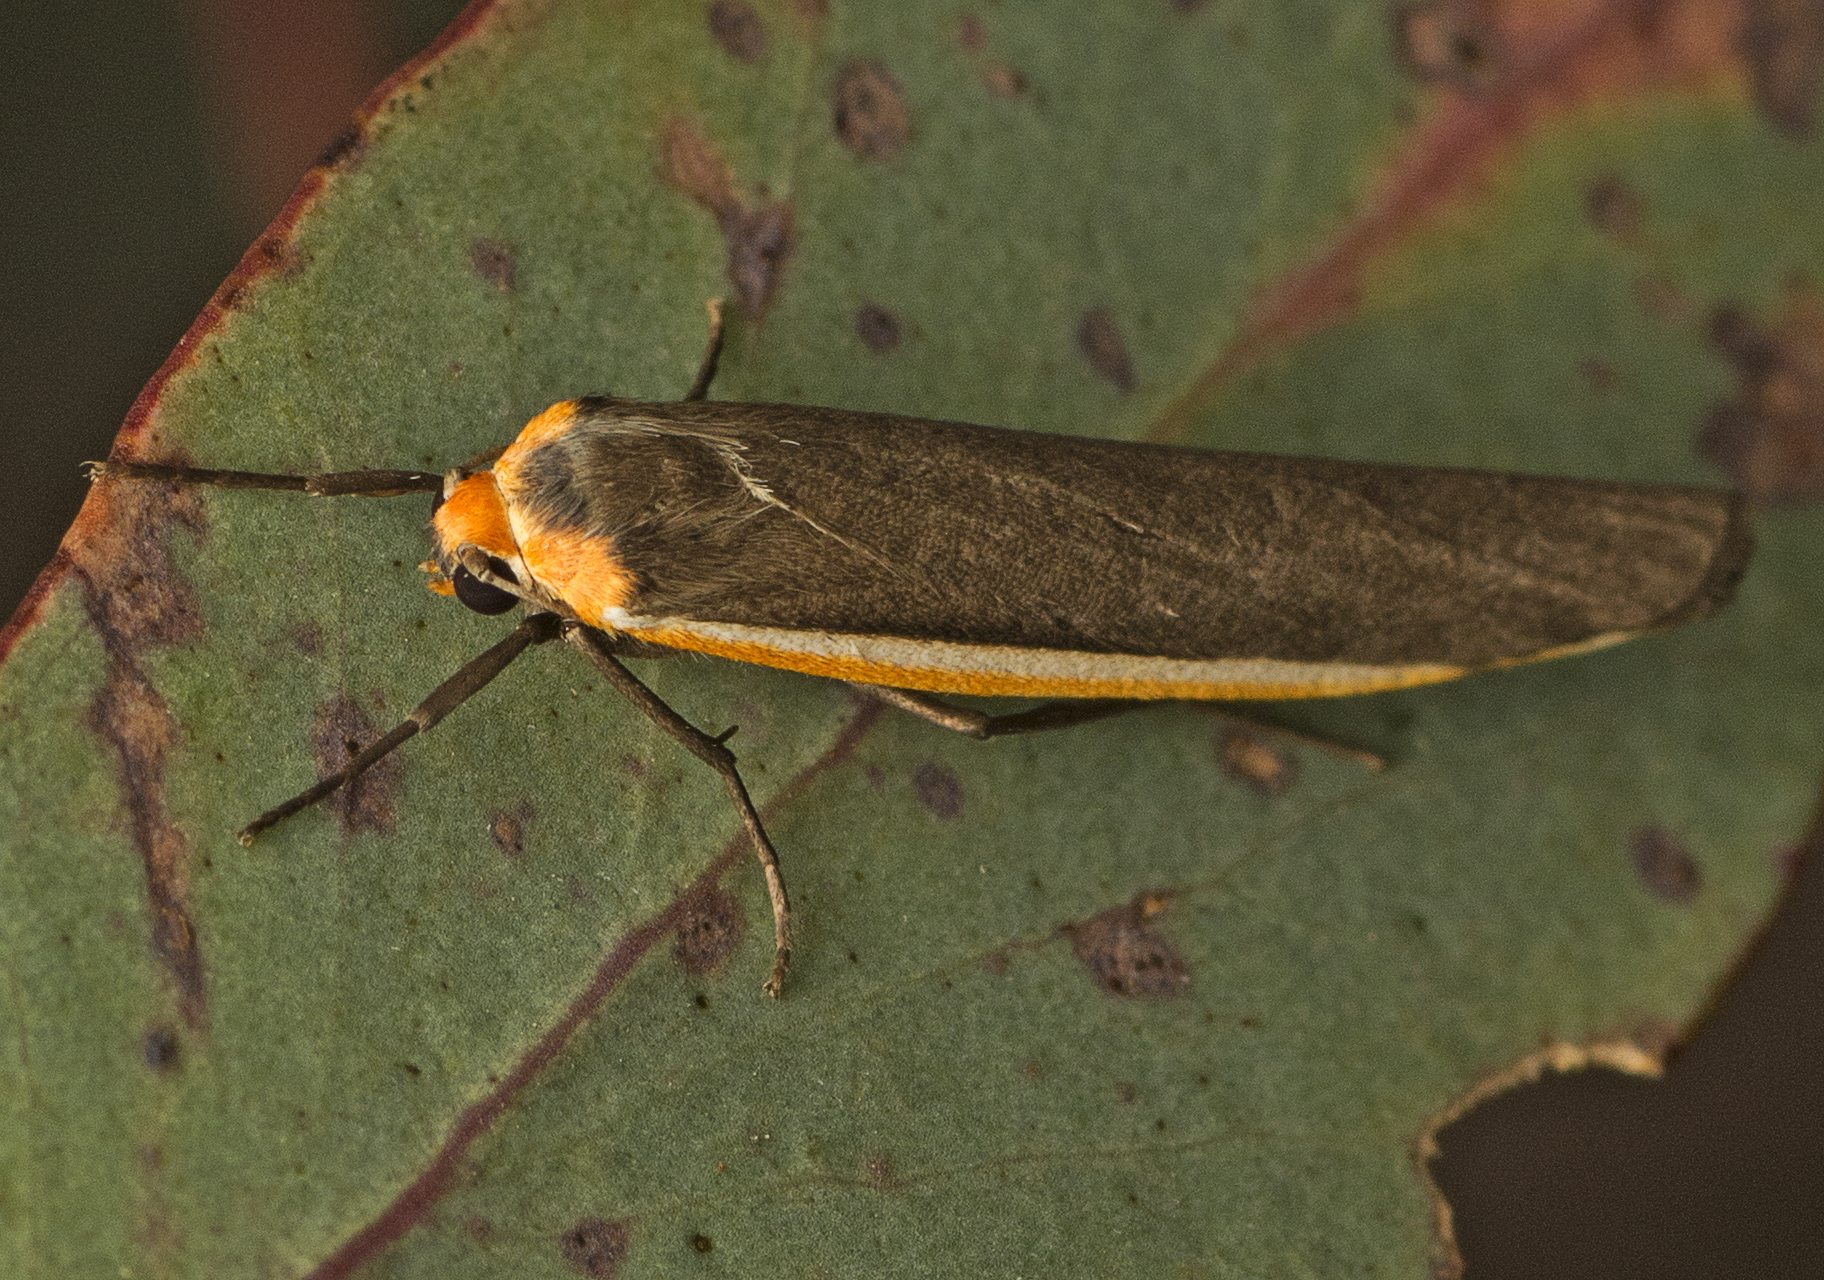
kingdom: Animalia
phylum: Arthropoda
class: Insecta
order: Lepidoptera
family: Erebidae
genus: Palaeosia
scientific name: Palaeosia bicosta
